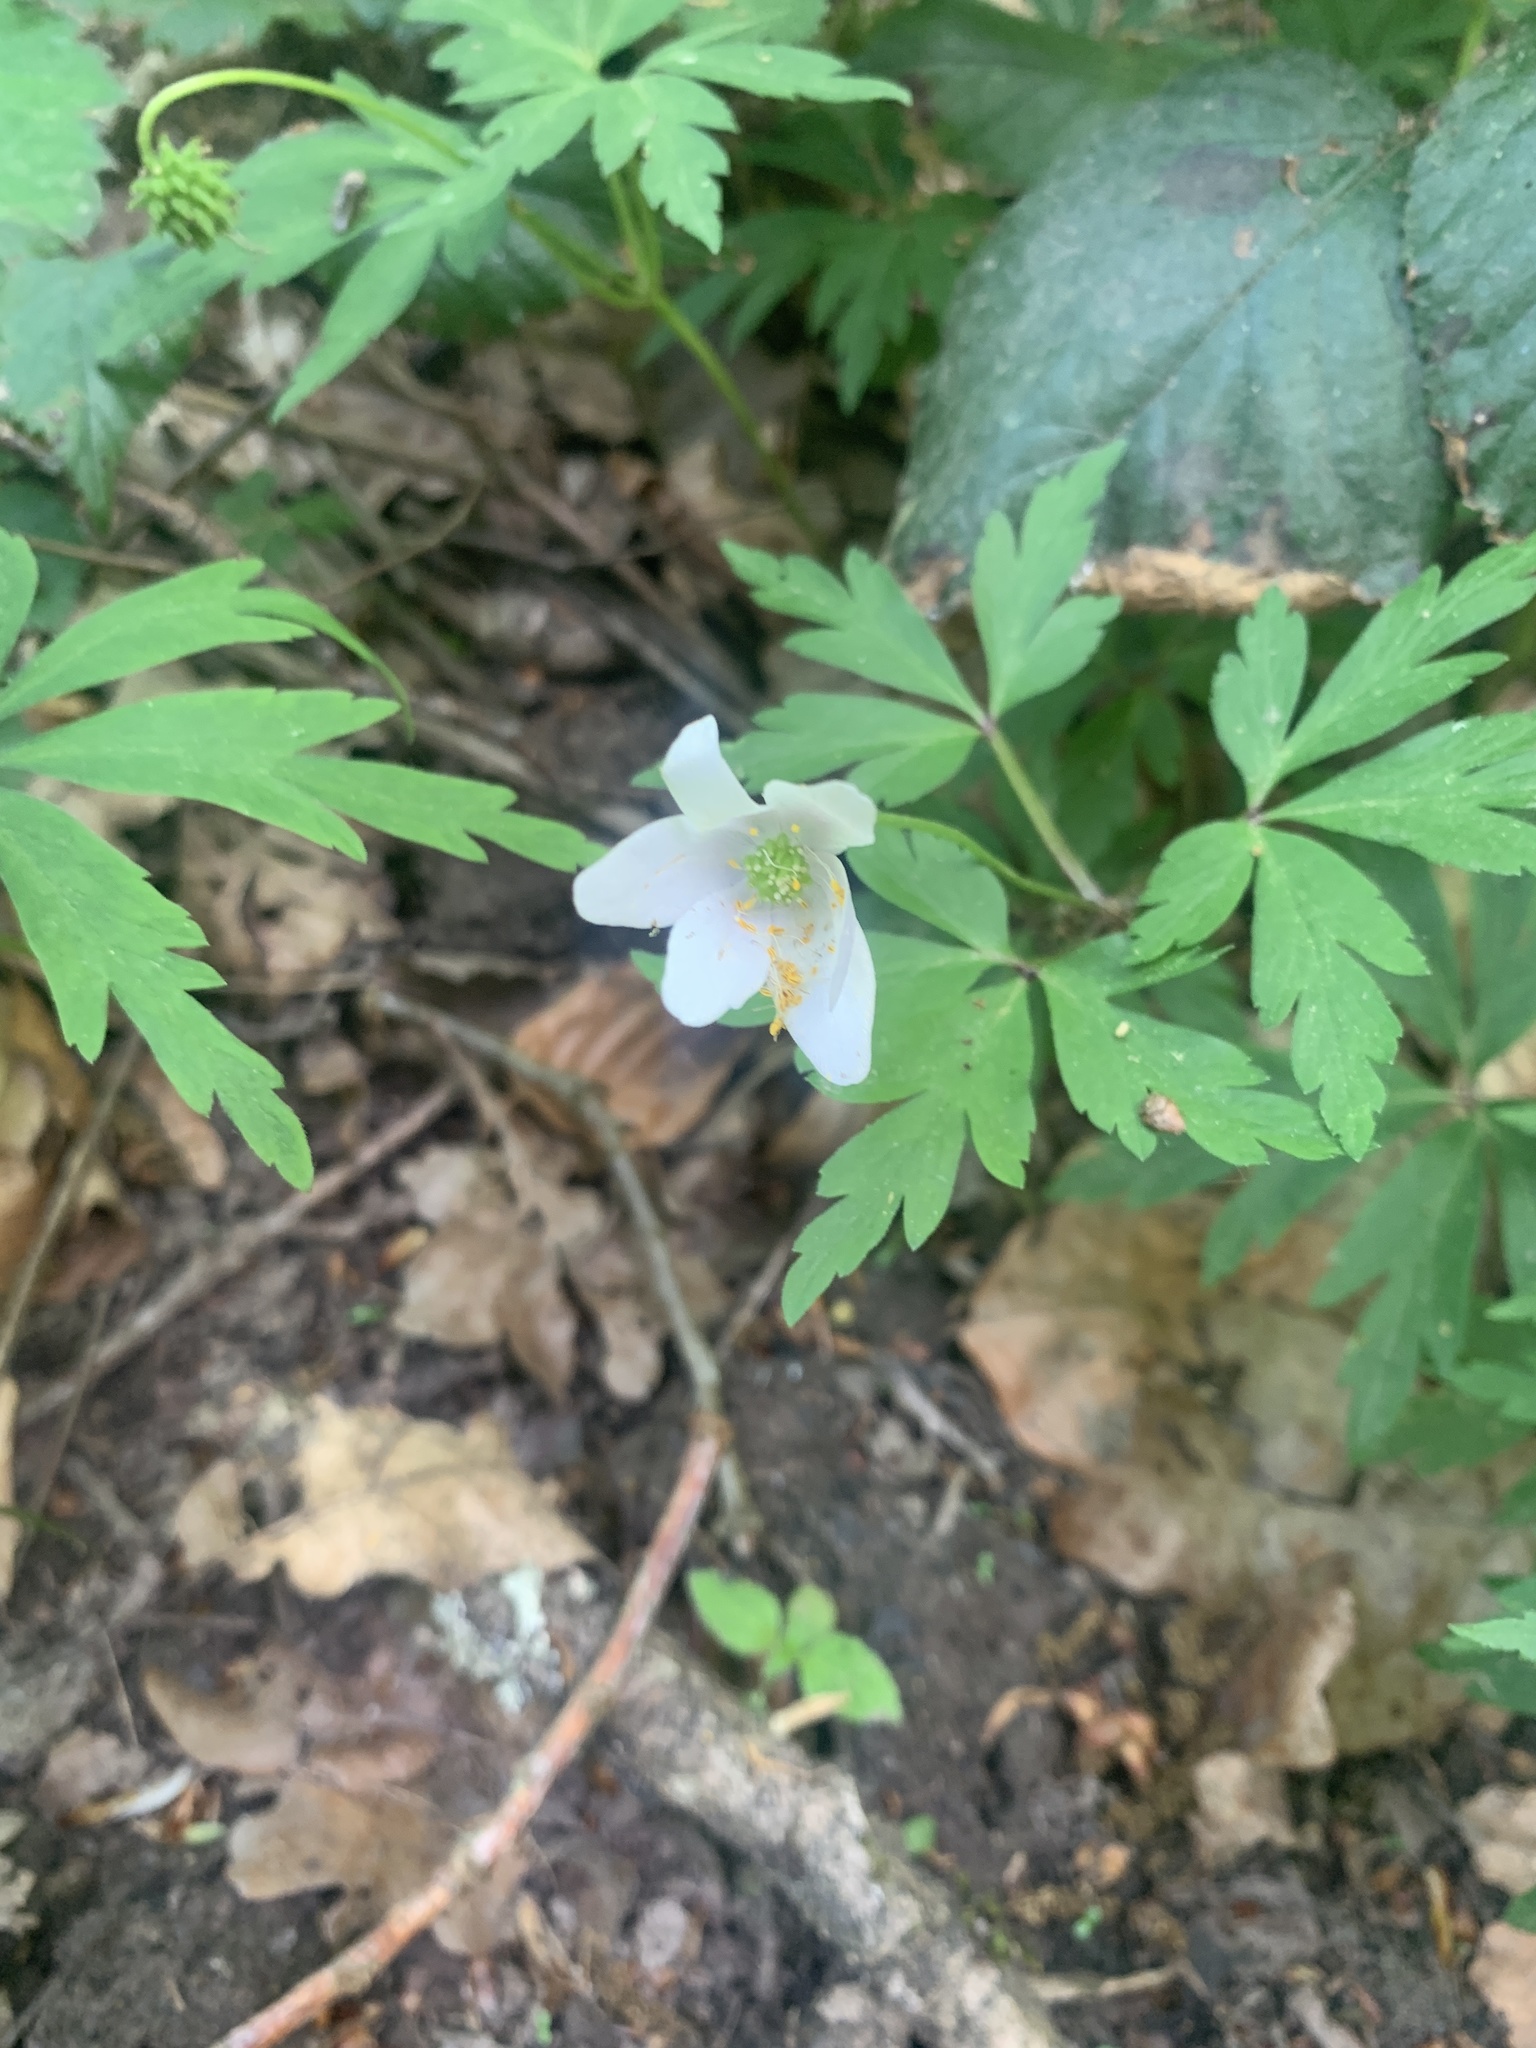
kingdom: Plantae
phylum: Tracheophyta
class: Magnoliopsida
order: Ranunculales
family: Ranunculaceae
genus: Anemone
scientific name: Anemone nemorosa
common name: Wood anemone
